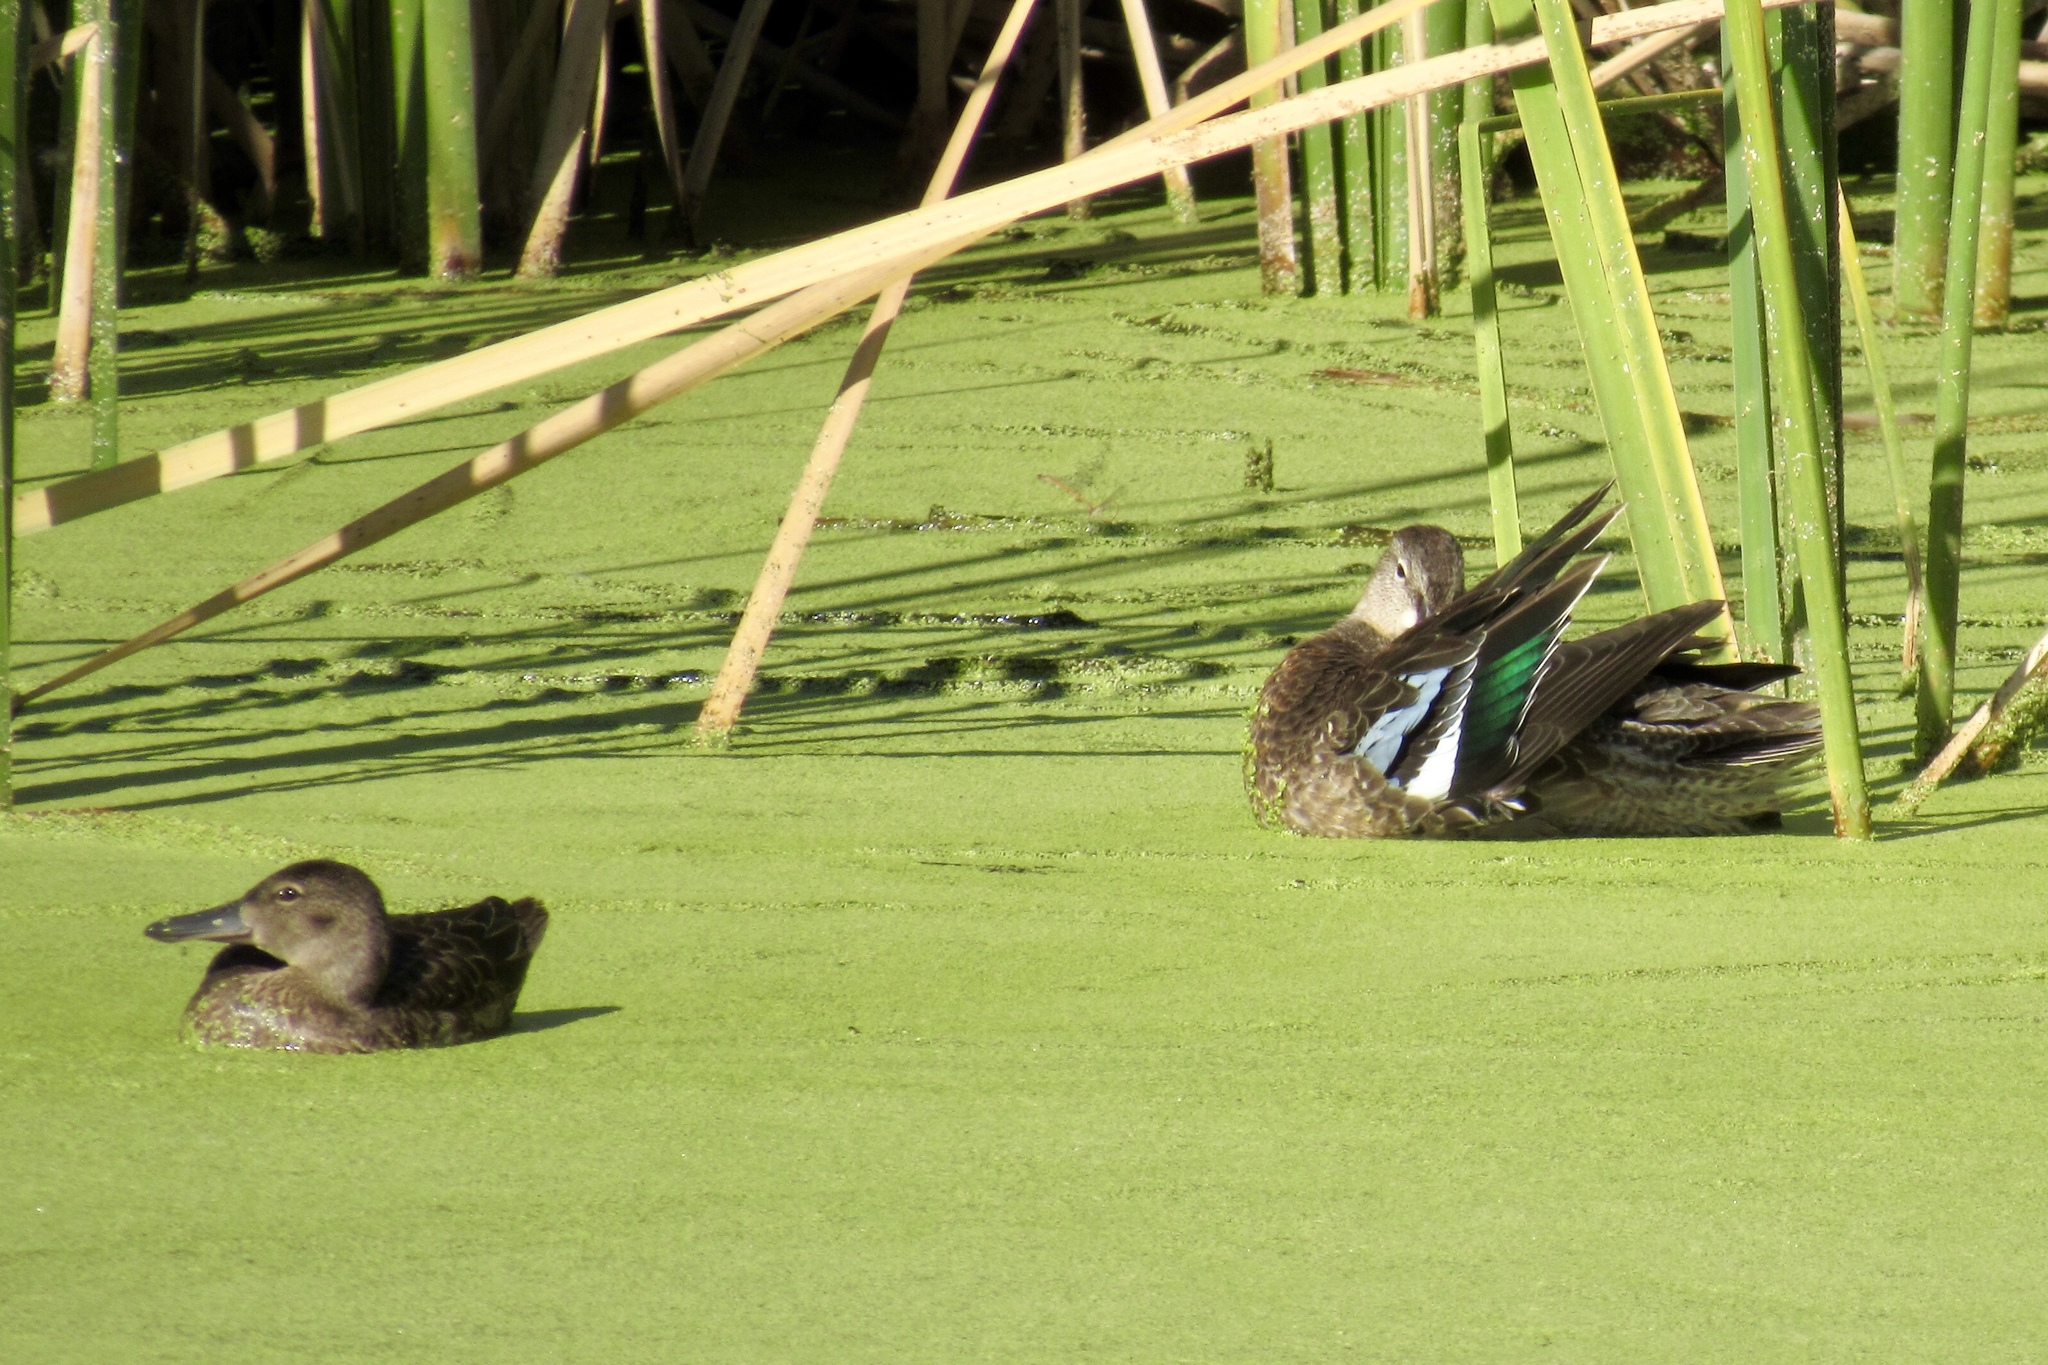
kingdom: Animalia
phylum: Chordata
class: Aves
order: Anseriformes
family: Anatidae
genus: Spatula
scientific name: Spatula discors
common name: Blue-winged teal
